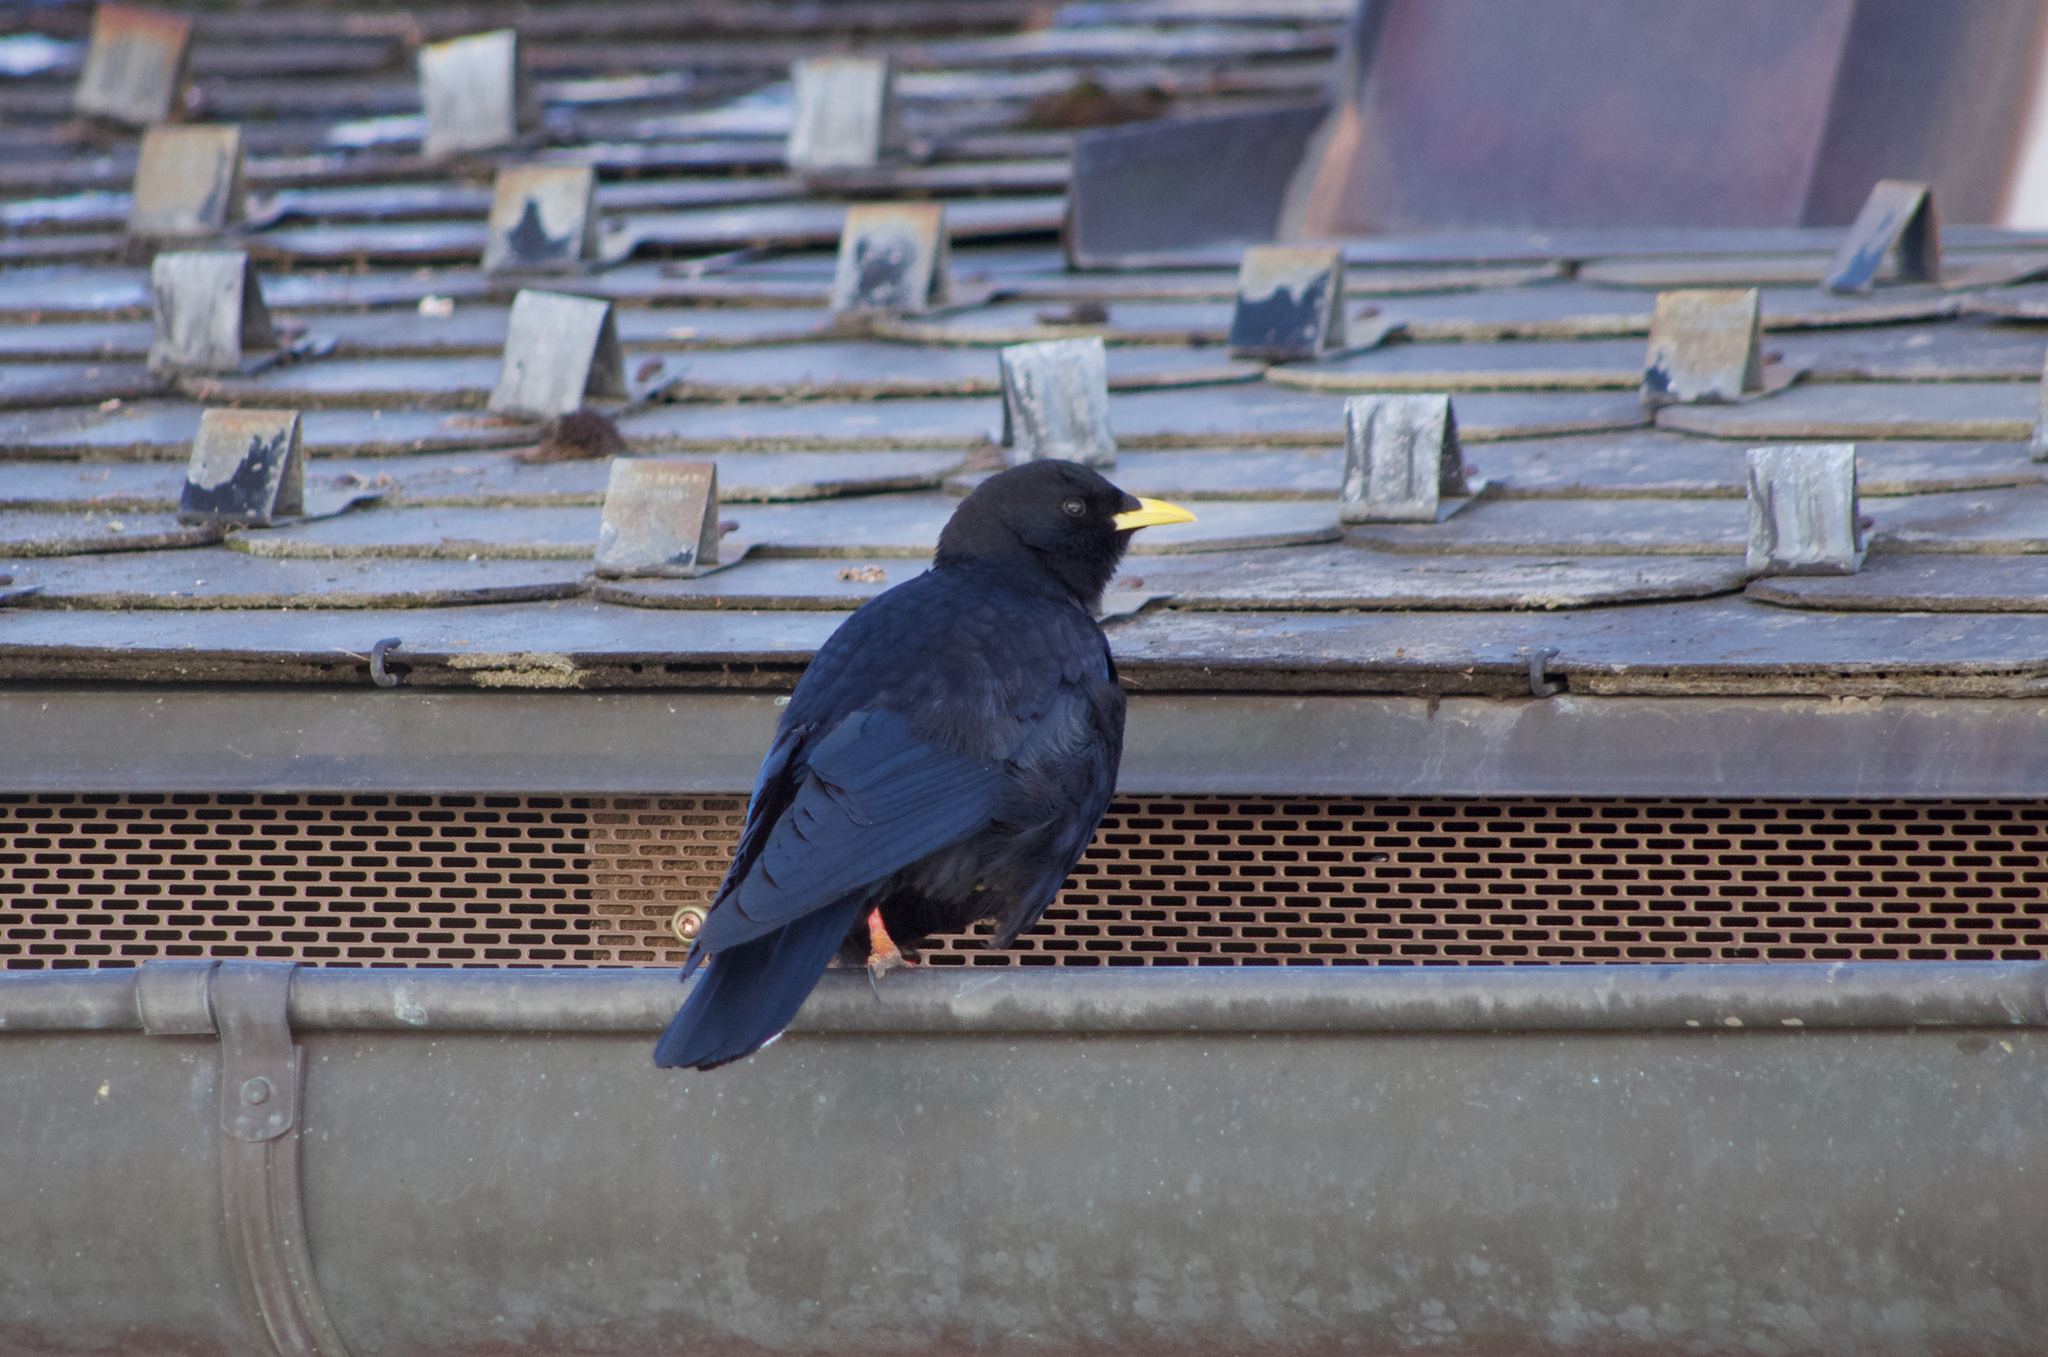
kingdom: Animalia
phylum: Chordata
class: Aves
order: Passeriformes
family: Corvidae
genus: Pyrrhocorax
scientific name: Pyrrhocorax graculus
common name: Alpine chough
